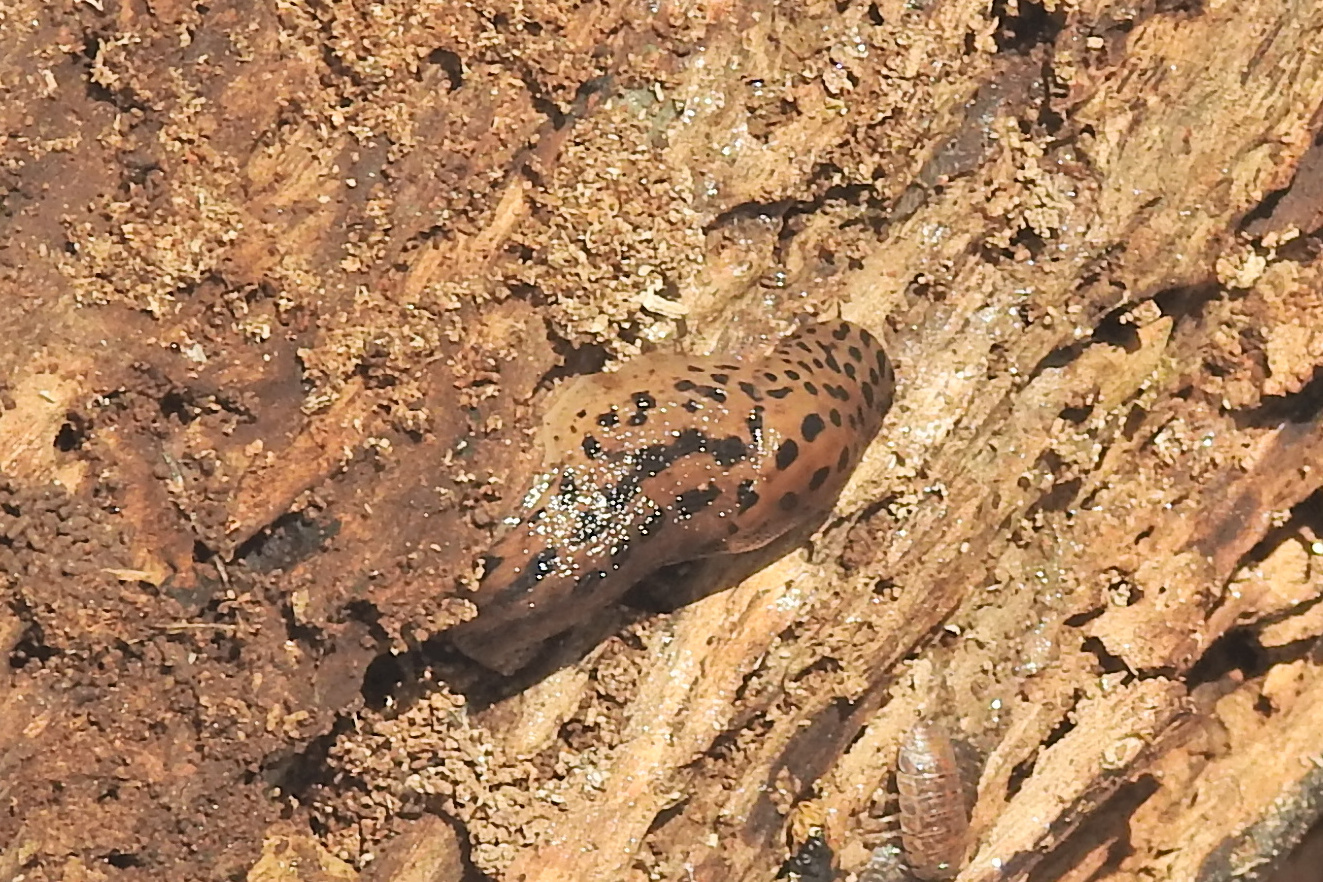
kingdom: Animalia
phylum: Mollusca
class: Gastropoda
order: Stylommatophora
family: Limacidae
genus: Limax
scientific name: Limax maximus
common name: Great grey slug
